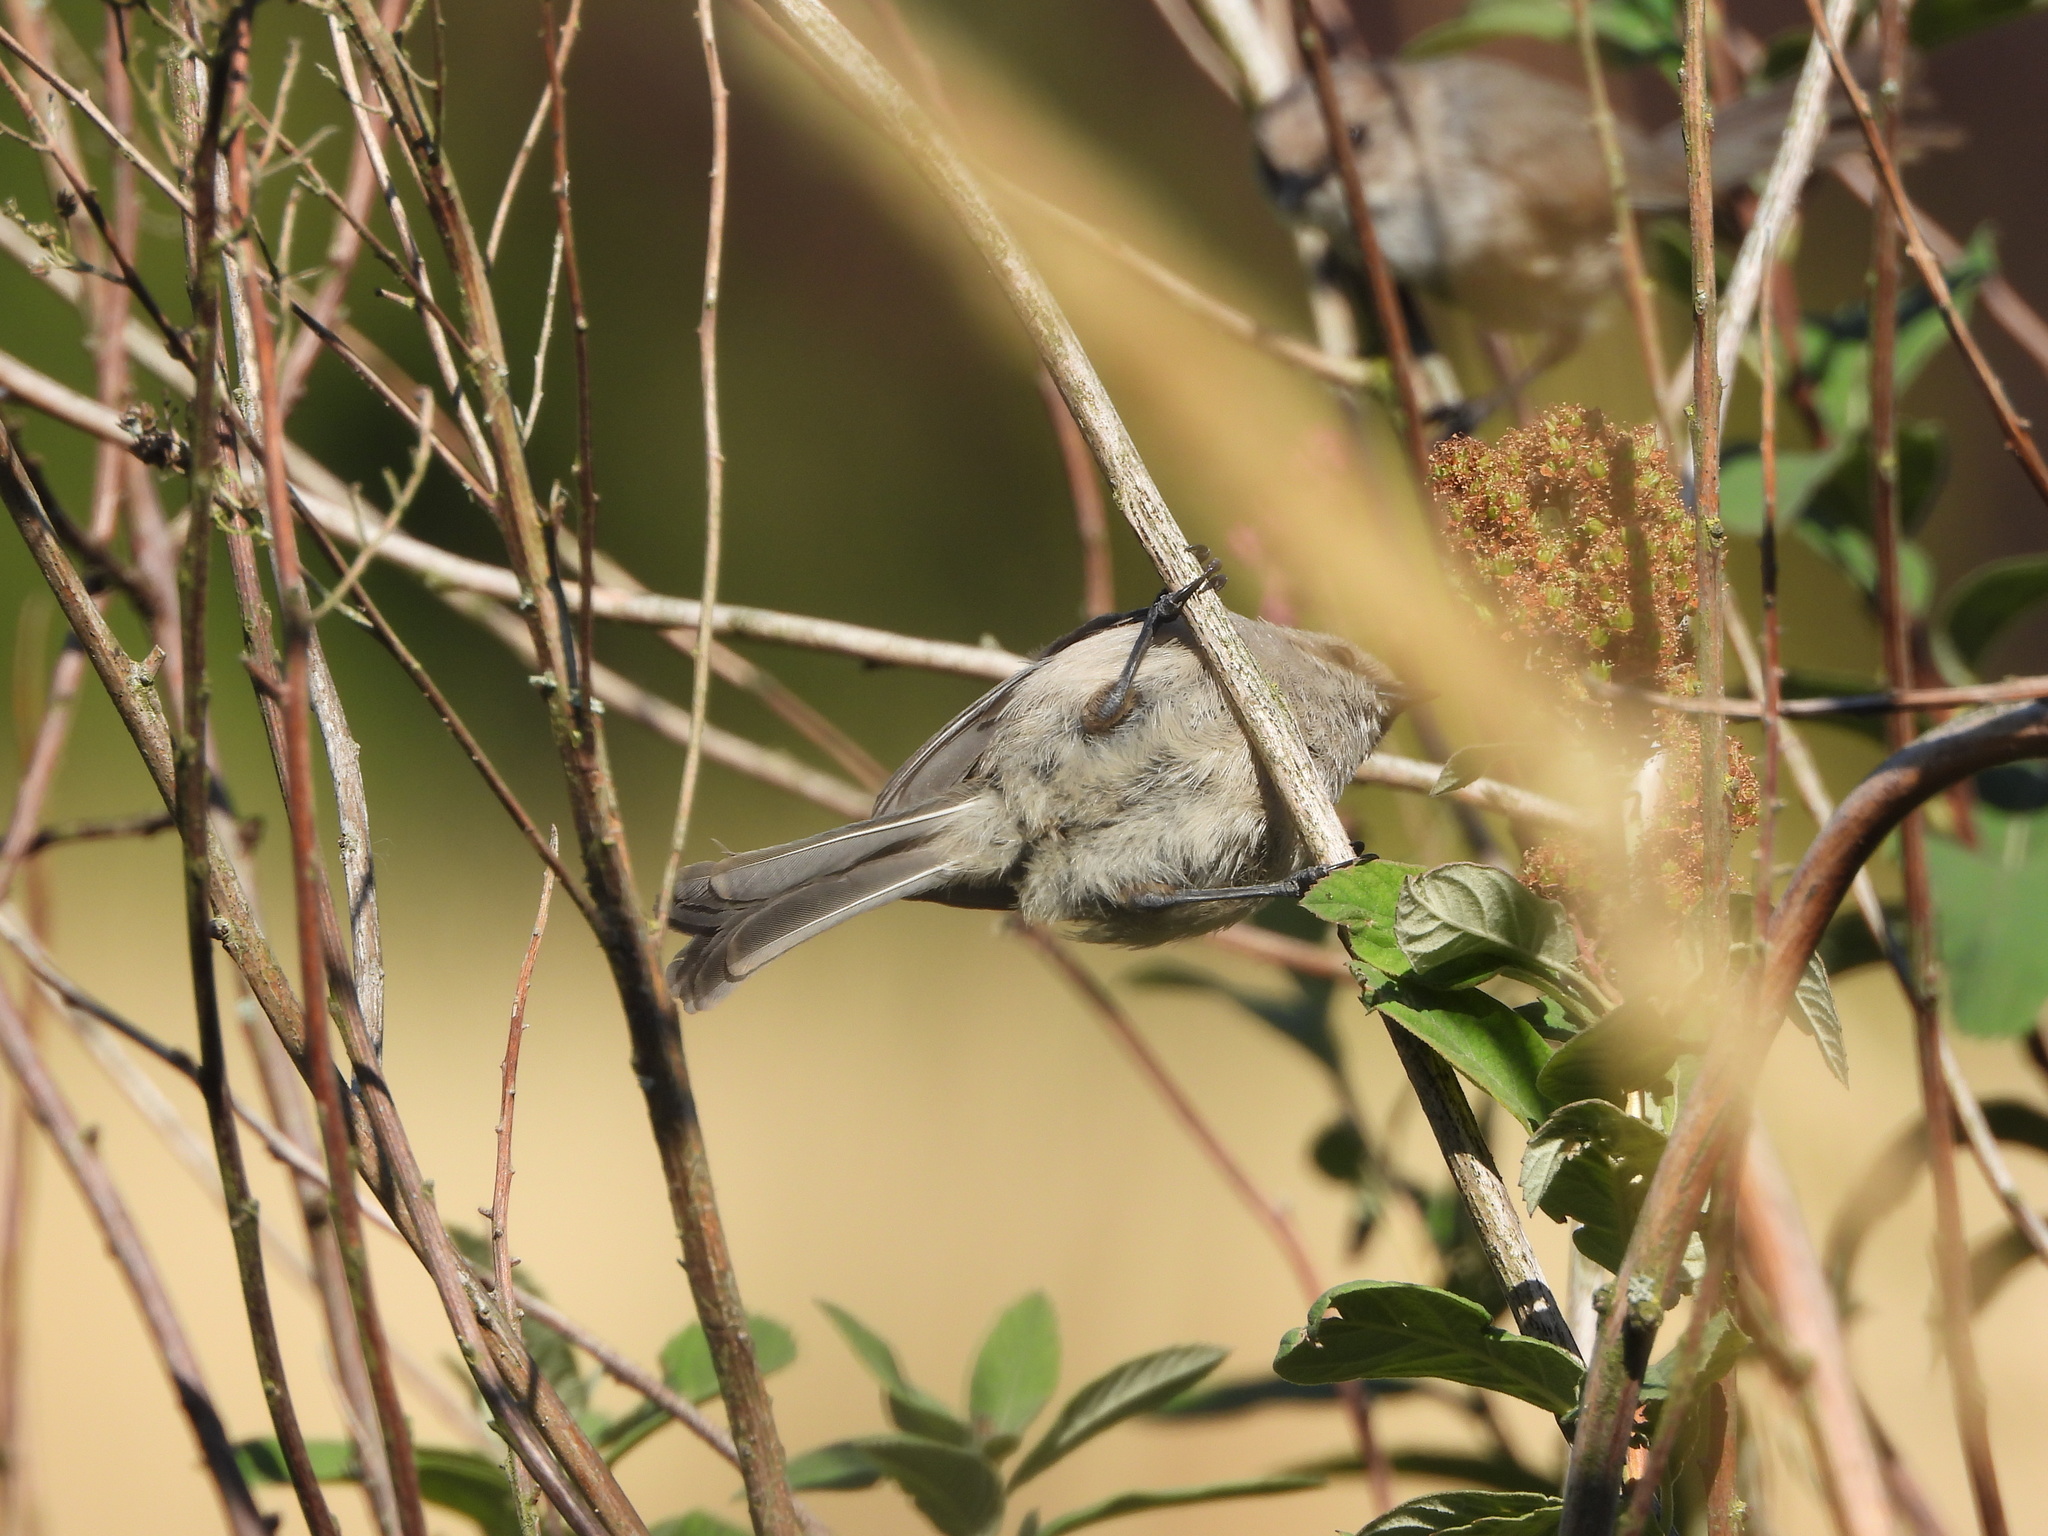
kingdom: Animalia
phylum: Chordata
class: Aves
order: Passeriformes
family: Aegithalidae
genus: Psaltriparus
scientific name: Psaltriparus minimus
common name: American bushtit
